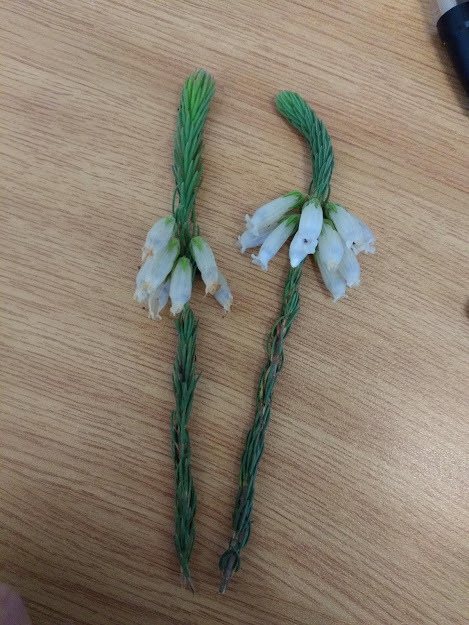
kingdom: Plantae
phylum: Tracheophyta
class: Magnoliopsida
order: Ericales
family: Ericaceae
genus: Erica
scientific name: Erica viscaria
